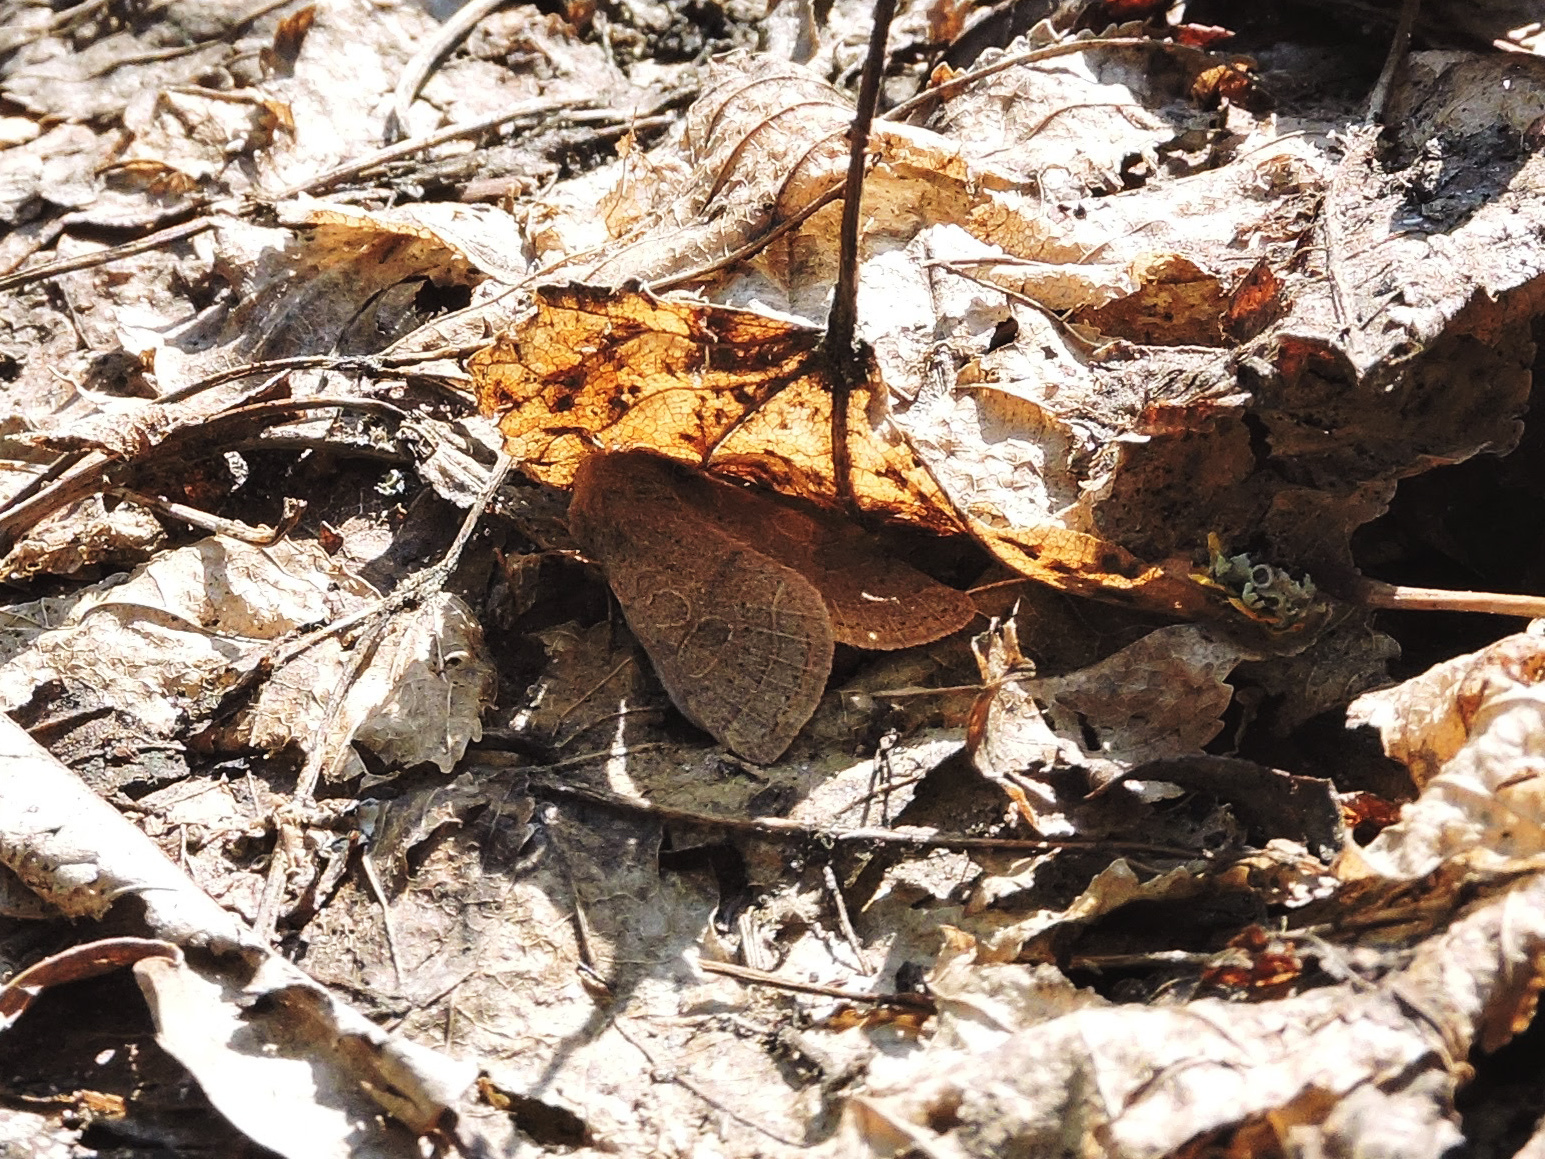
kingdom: Animalia
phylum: Arthropoda
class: Insecta
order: Lepidoptera
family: Noctuidae
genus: Orthosia
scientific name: Orthosia cerasi
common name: Common quaker
